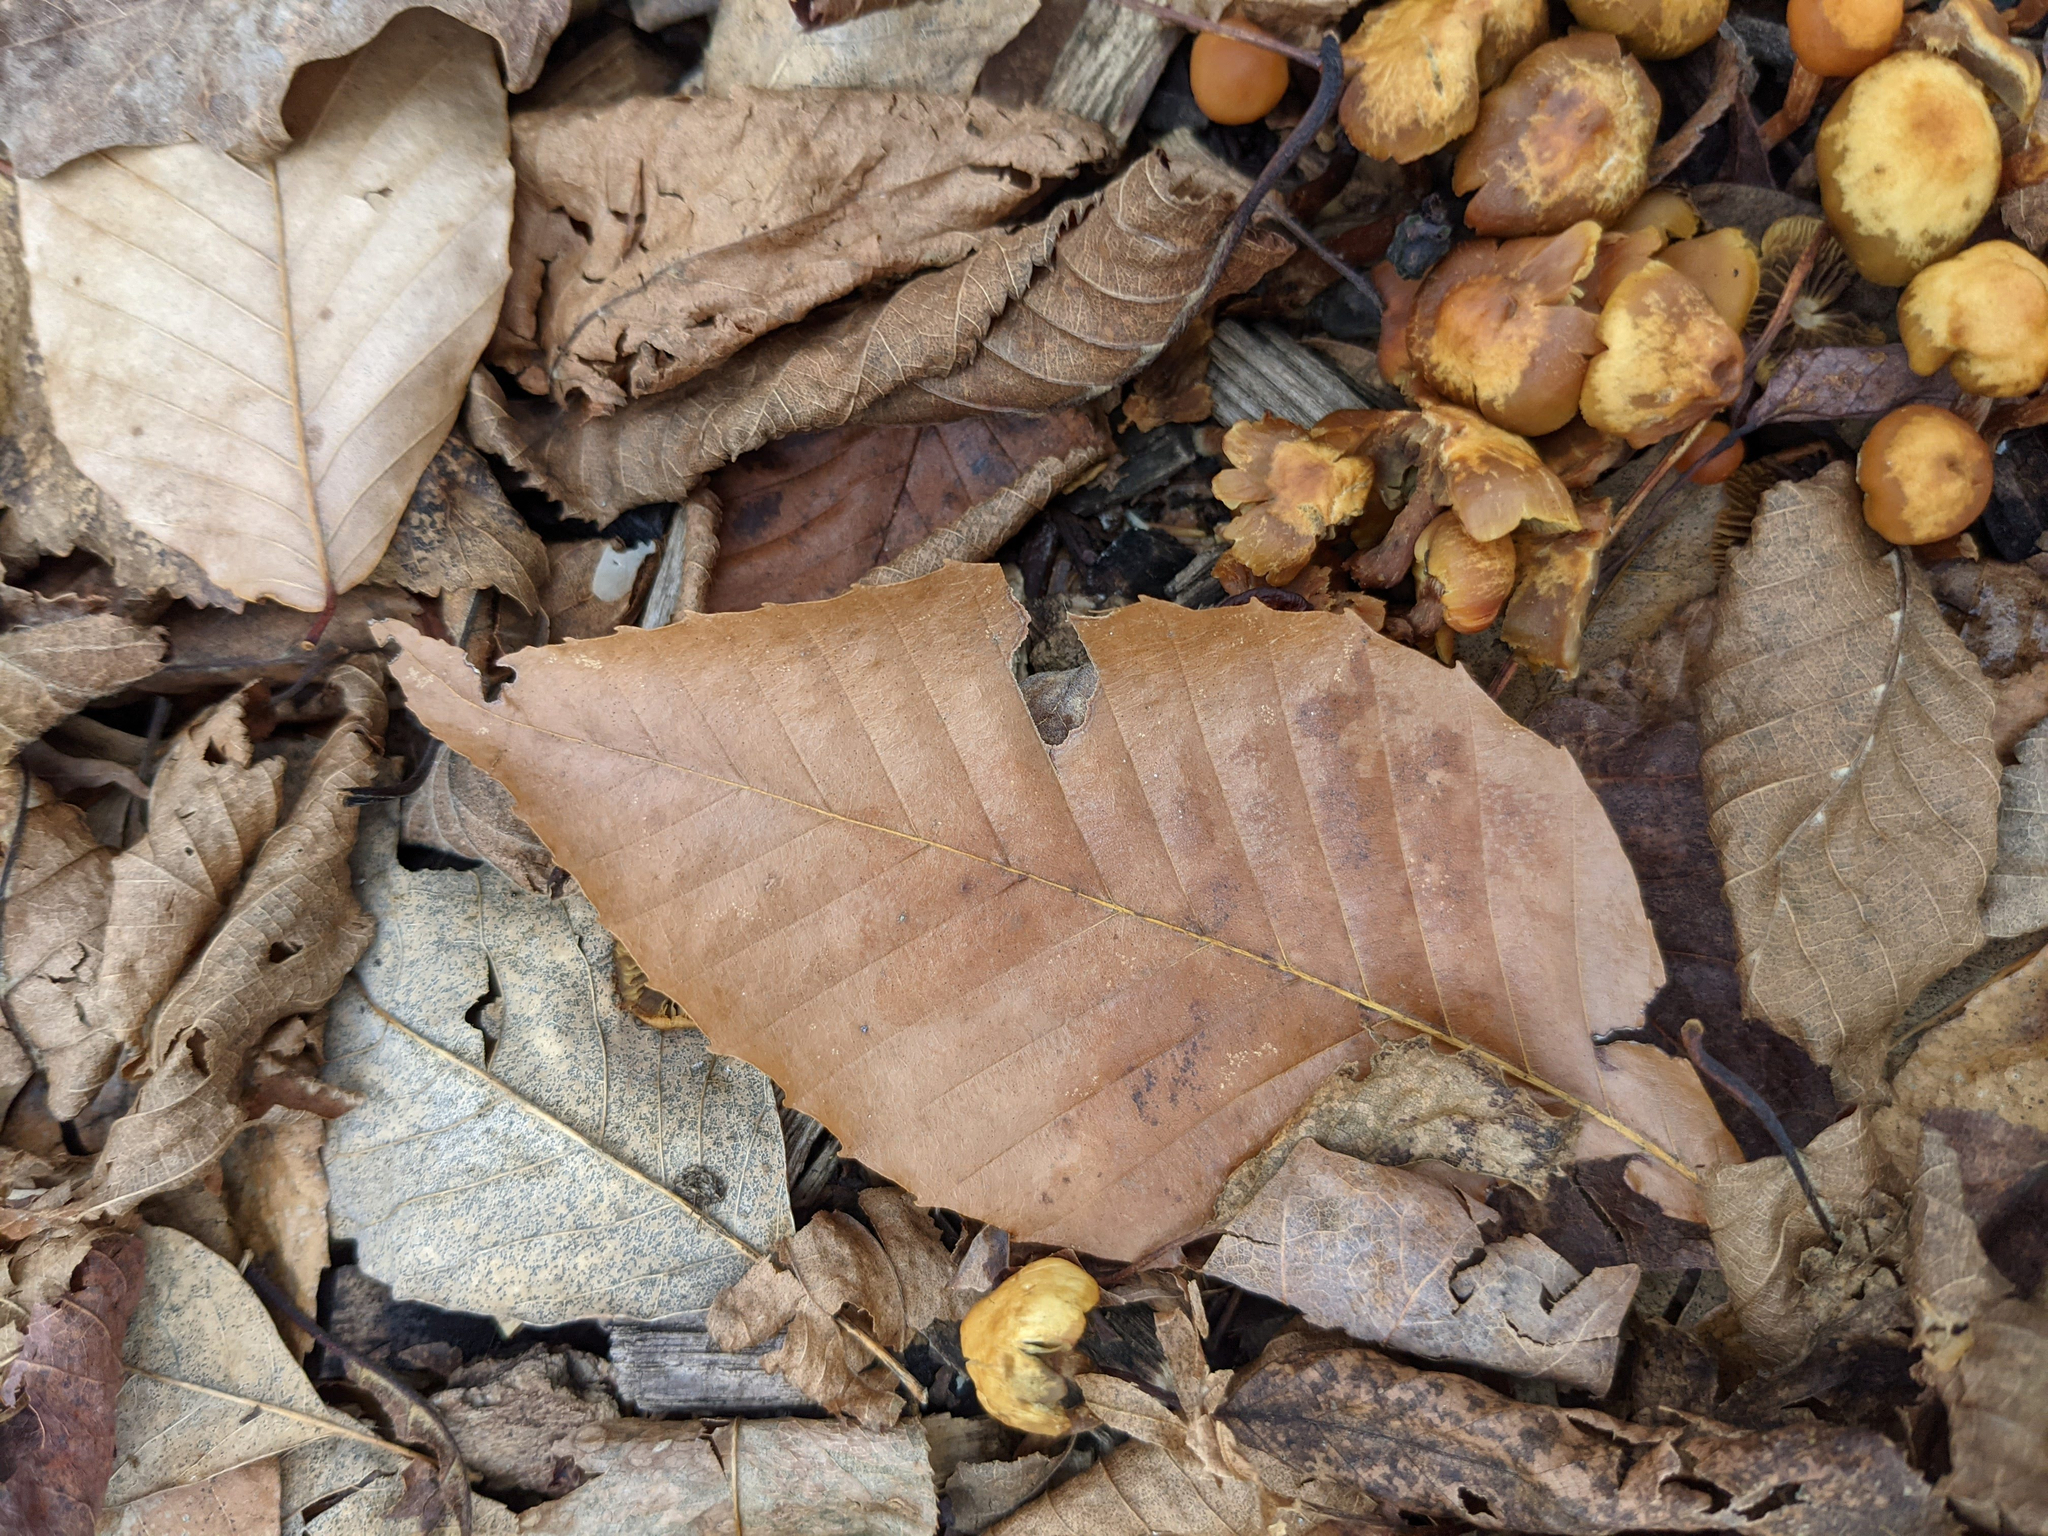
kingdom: Plantae
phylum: Tracheophyta
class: Magnoliopsida
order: Fagales
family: Fagaceae
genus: Fagus
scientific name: Fagus grandifolia
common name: American beech
